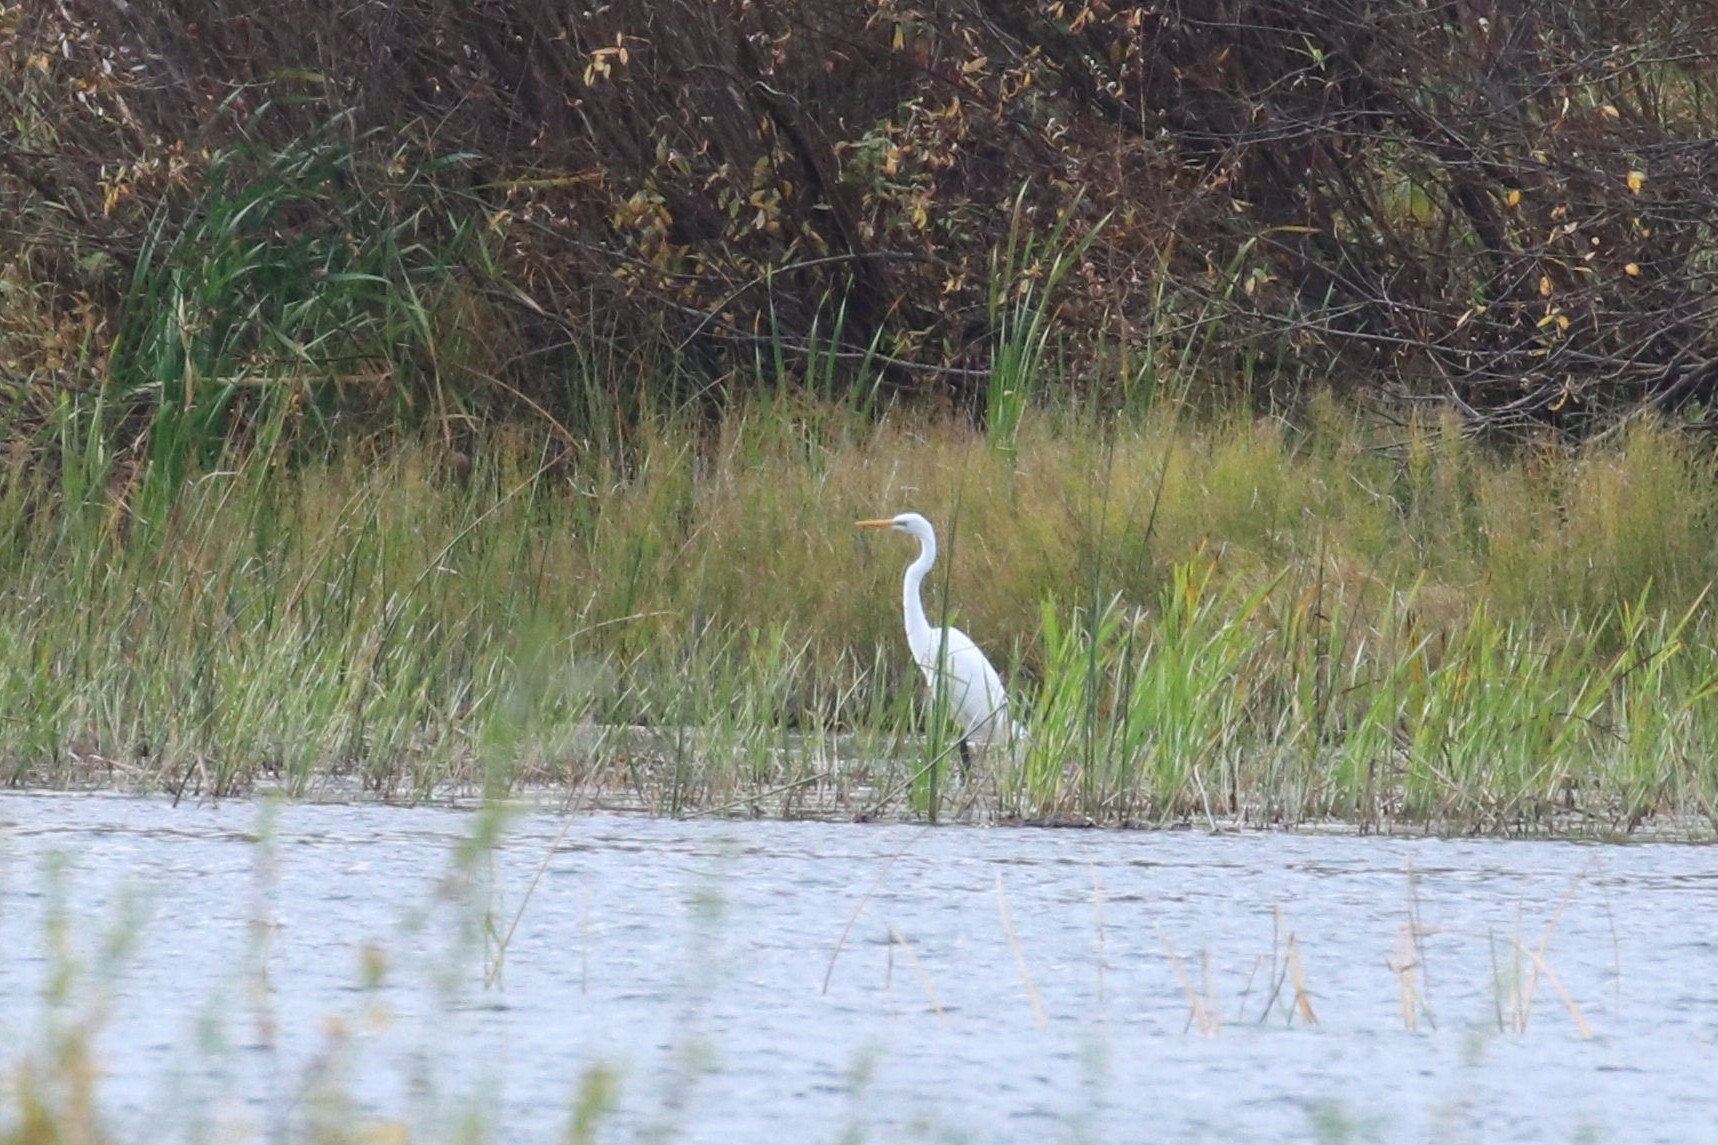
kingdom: Animalia
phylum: Chordata
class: Aves
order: Pelecaniformes
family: Ardeidae
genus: Ardea
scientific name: Ardea alba
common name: Great egret
